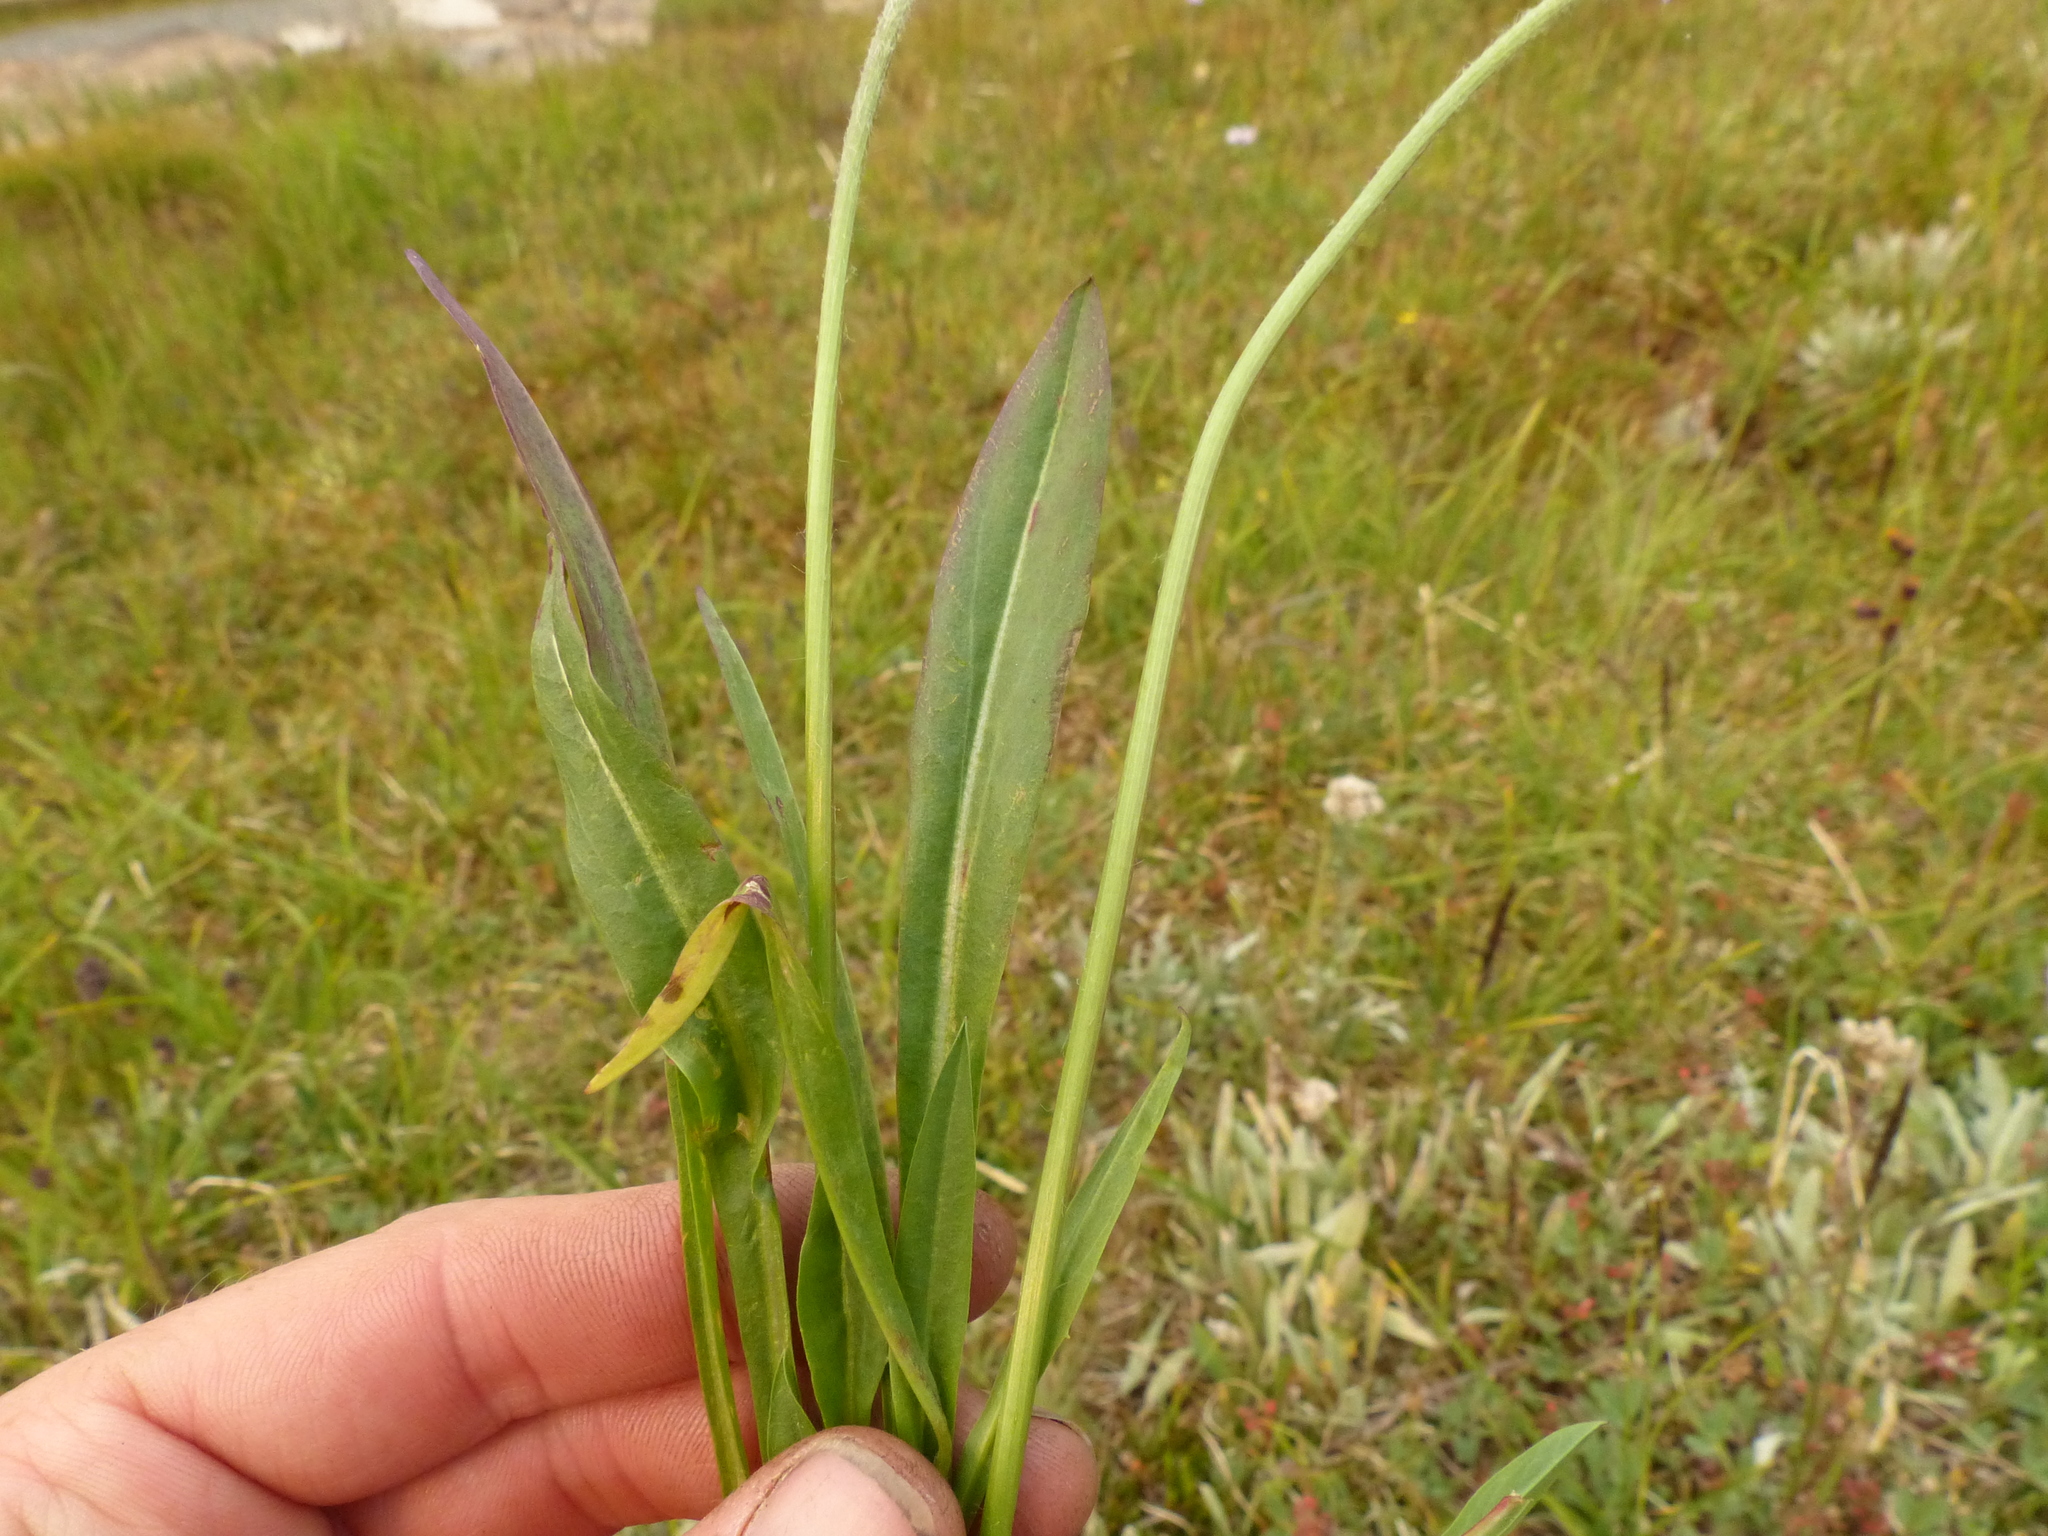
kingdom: Plantae
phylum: Tracheophyta
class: Magnoliopsida
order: Asterales
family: Asteraceae
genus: Agoseris
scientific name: Agoseris aurantiaca
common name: Mountain agoseris
